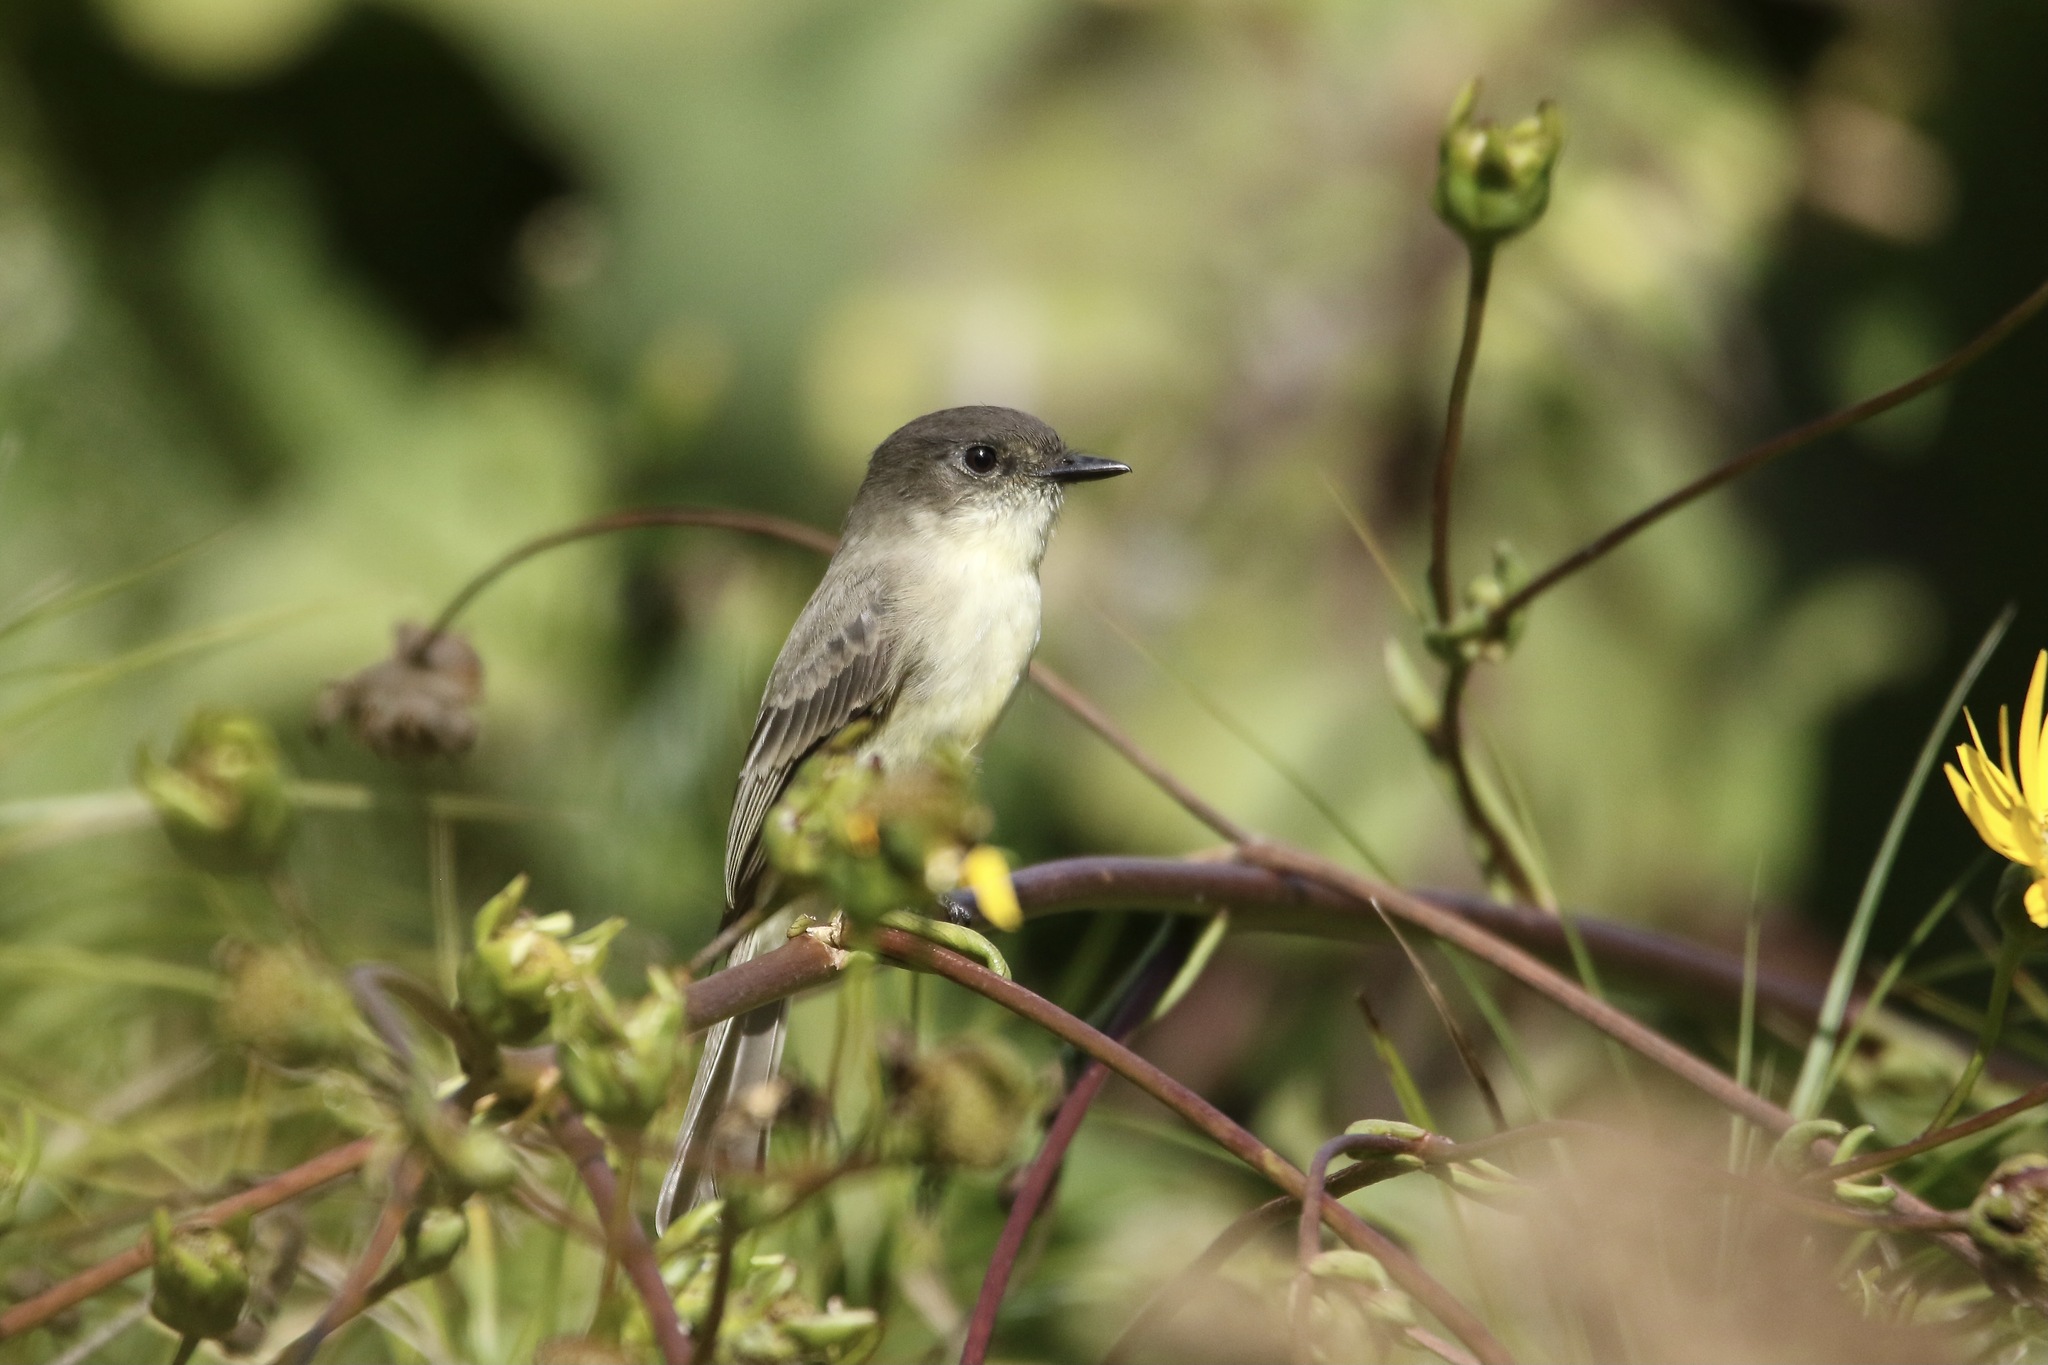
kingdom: Animalia
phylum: Chordata
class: Aves
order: Passeriformes
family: Tyrannidae
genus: Sayornis
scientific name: Sayornis phoebe
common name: Eastern phoebe
